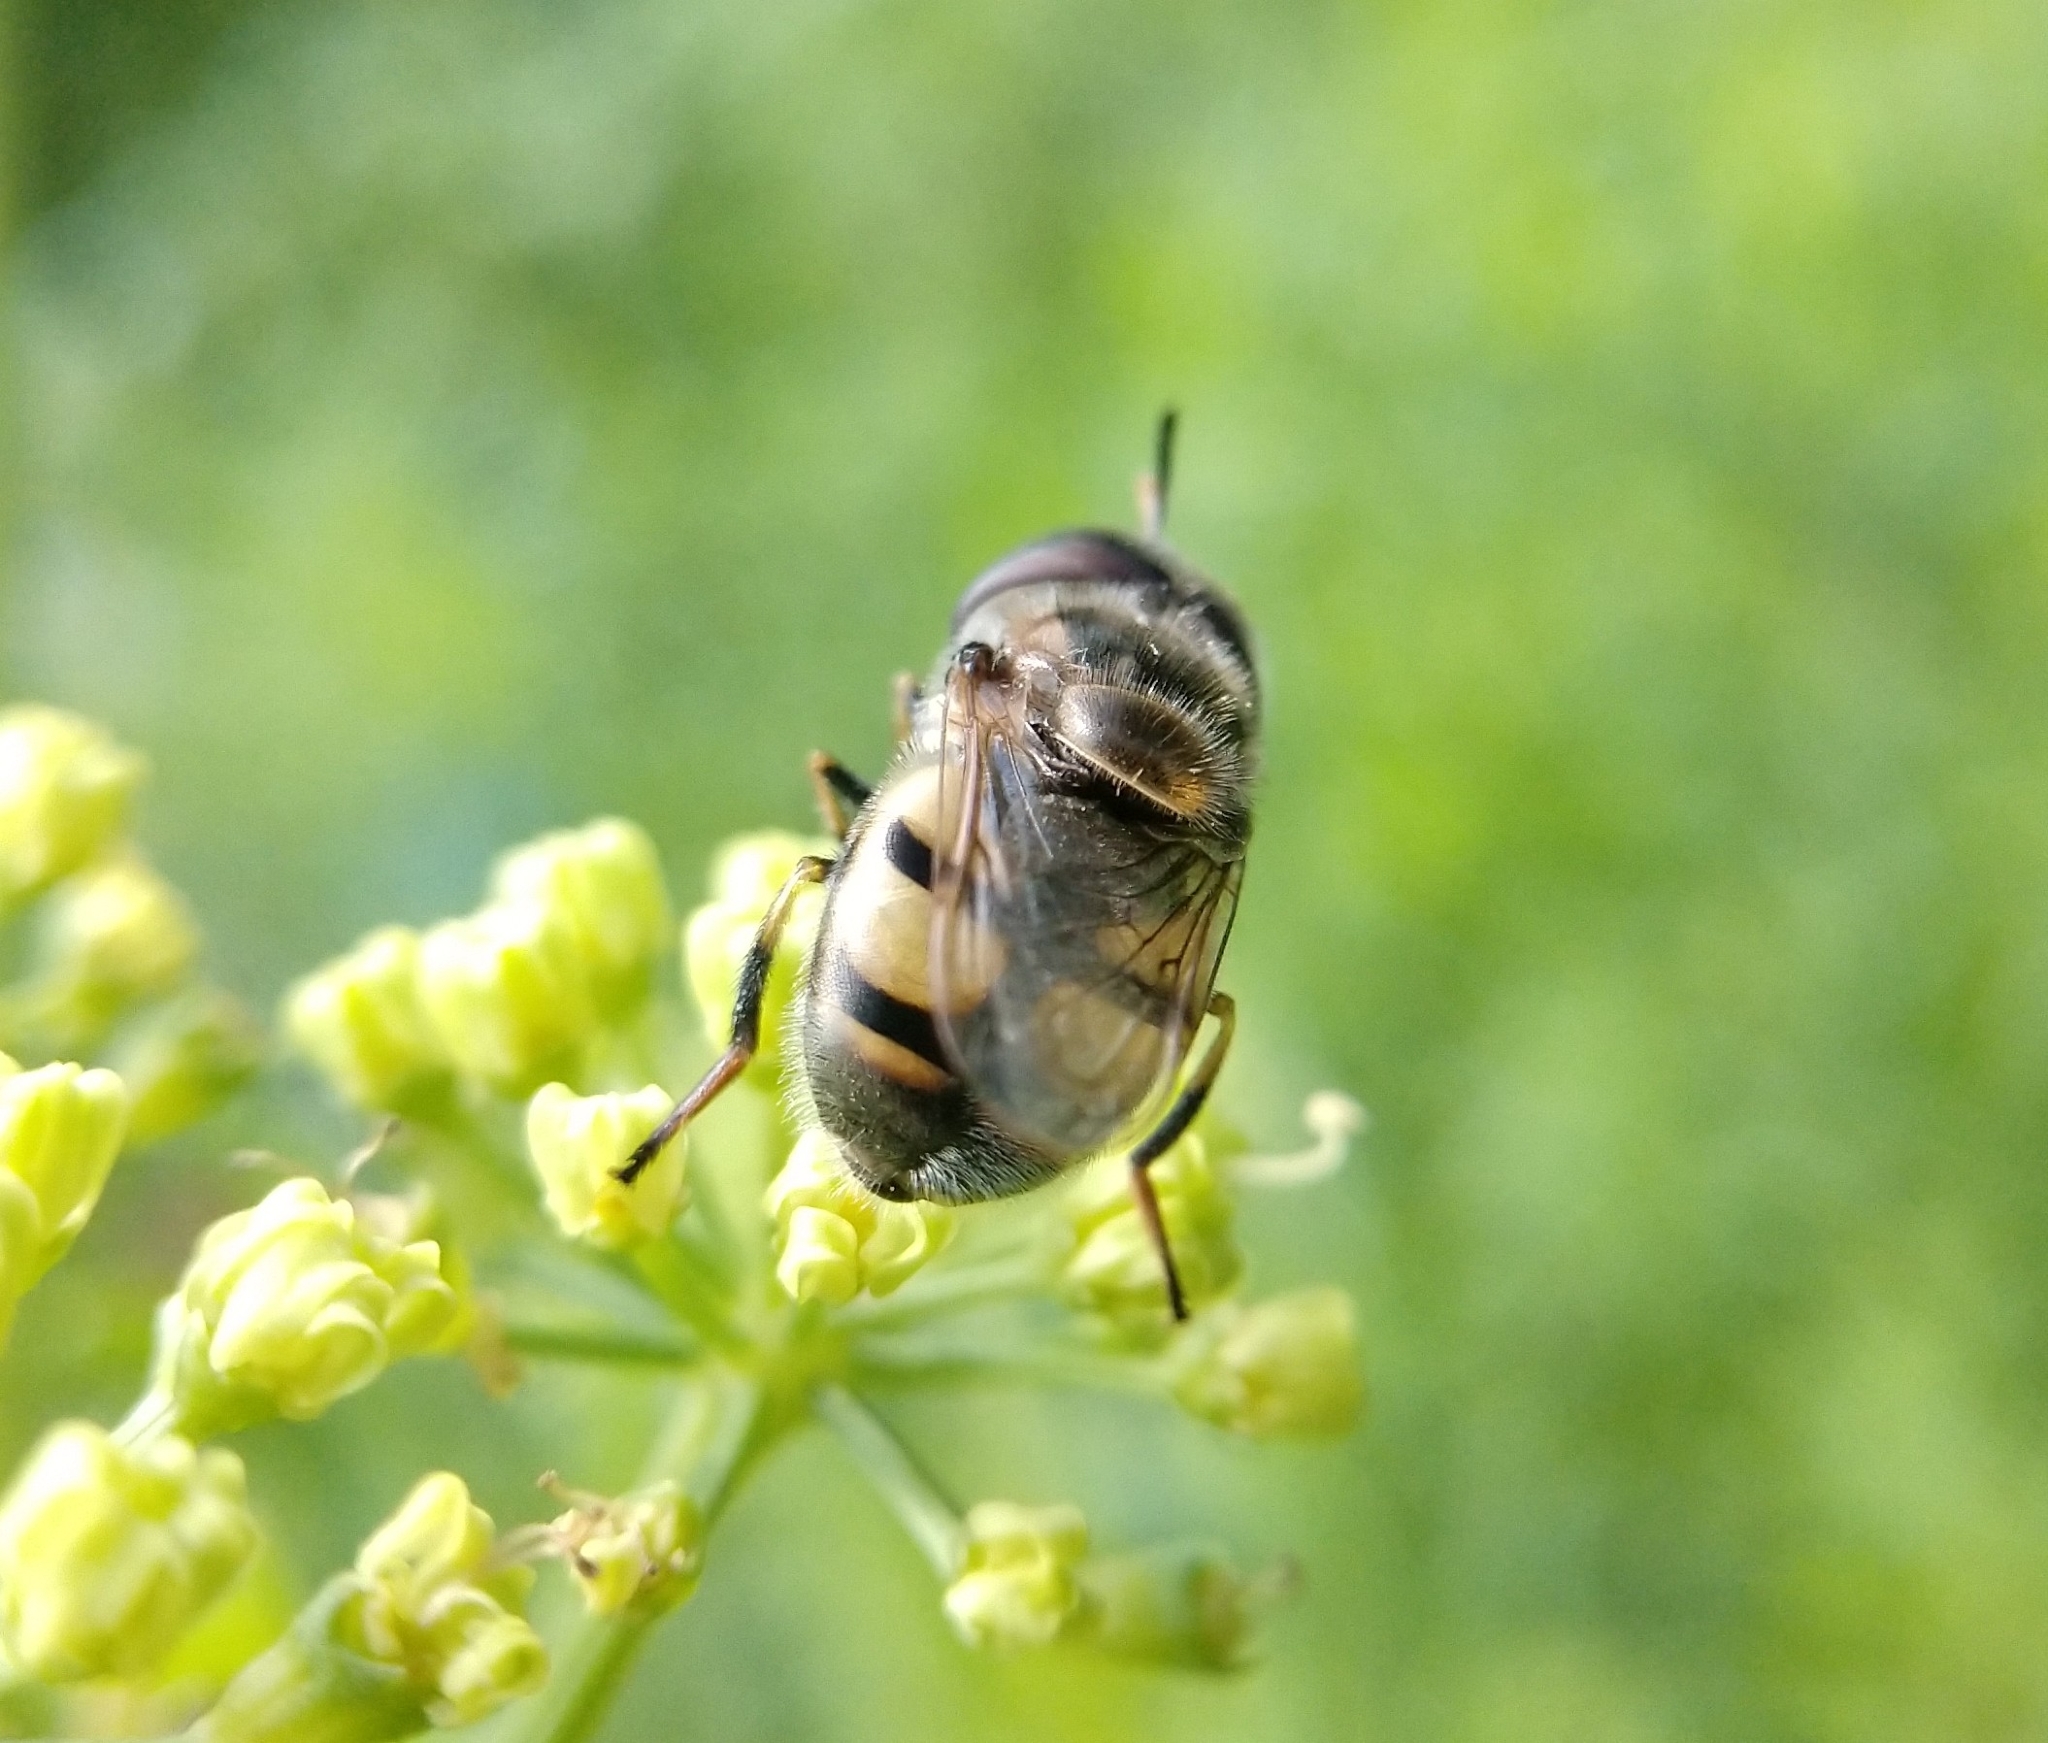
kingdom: Animalia
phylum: Arthropoda
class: Insecta
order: Diptera
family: Syrphidae
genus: Copestylum
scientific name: Copestylum marginatum
